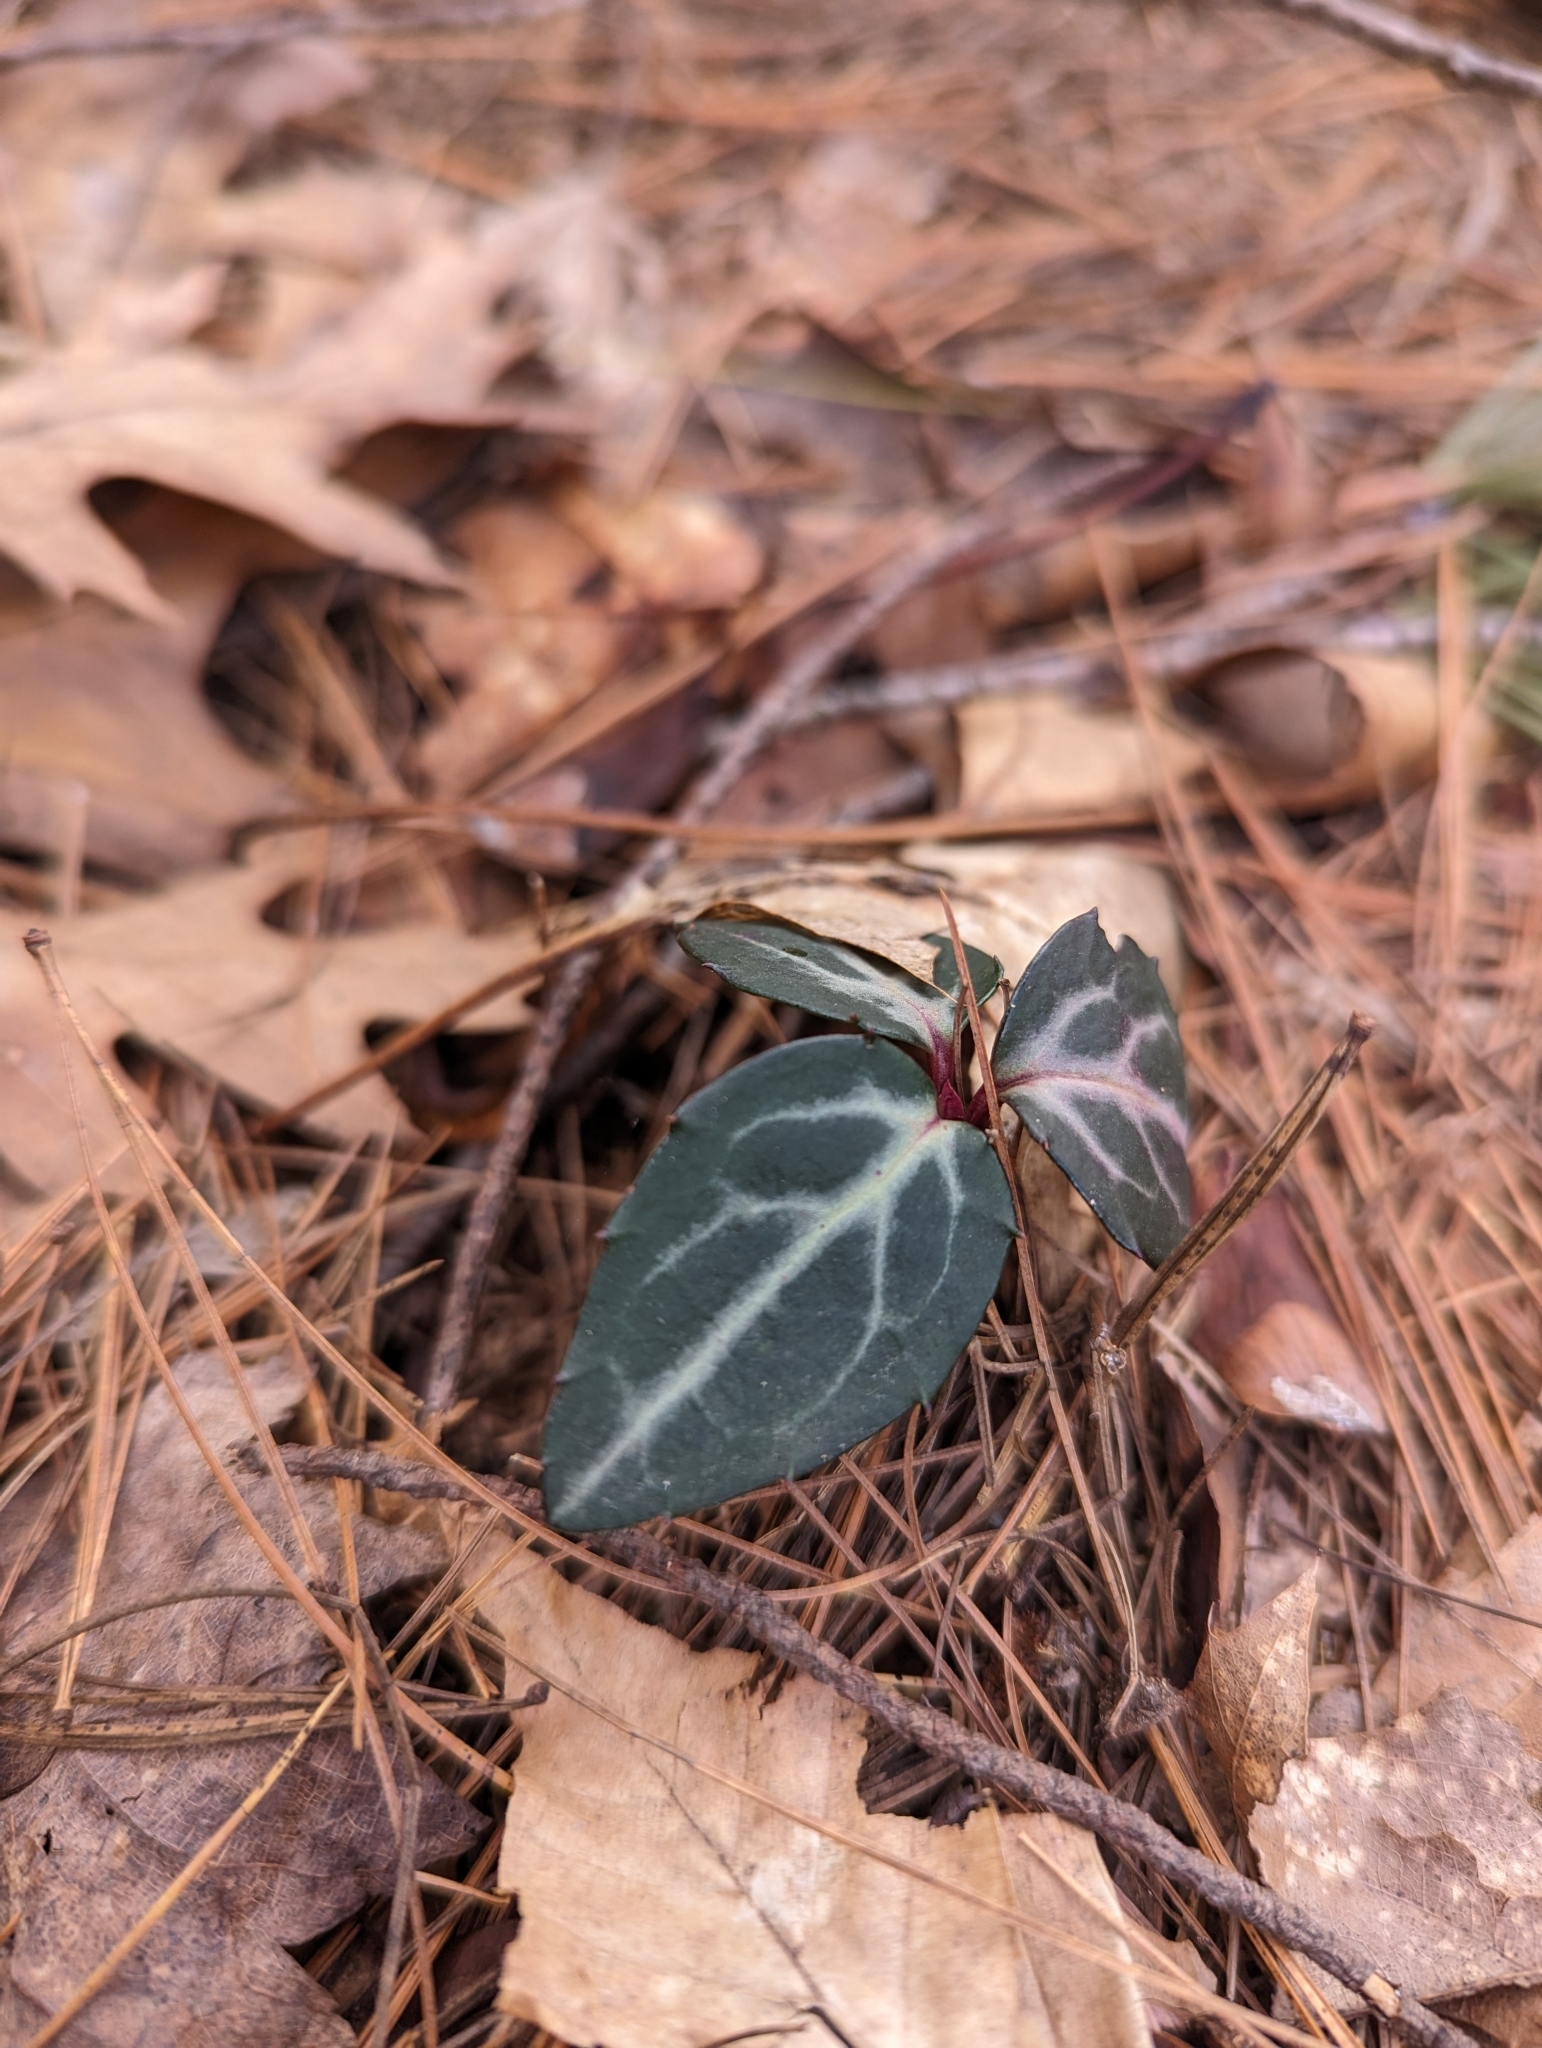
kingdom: Plantae
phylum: Tracheophyta
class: Magnoliopsida
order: Ericales
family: Ericaceae
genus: Chimaphila
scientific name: Chimaphila maculata
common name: Spotted pipsissewa
